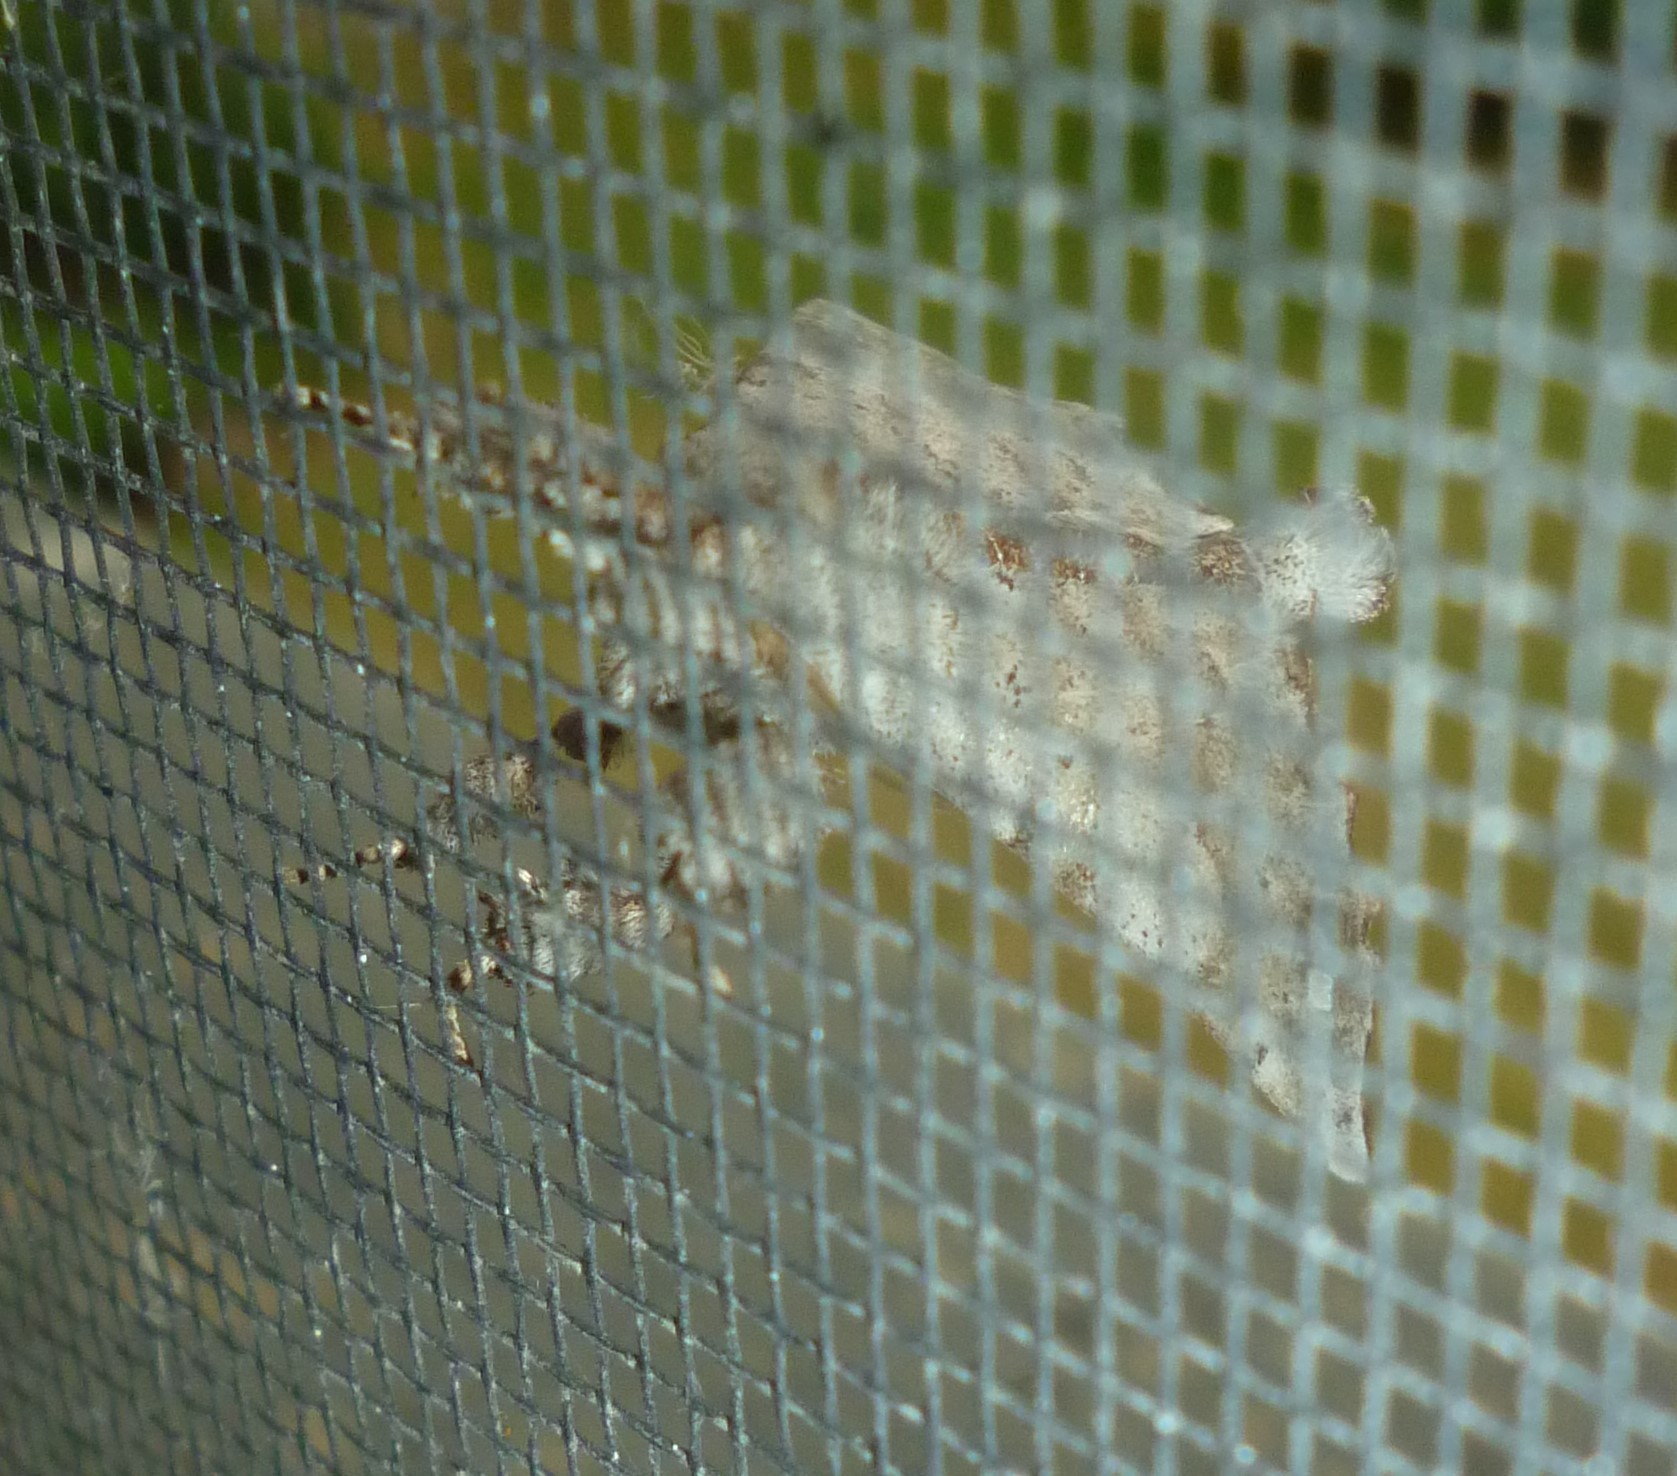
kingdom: Animalia
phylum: Arthropoda
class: Insecta
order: Lepidoptera
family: Apatelodidae
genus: Olceclostera
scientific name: Olceclostera angelica
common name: Angel moth
